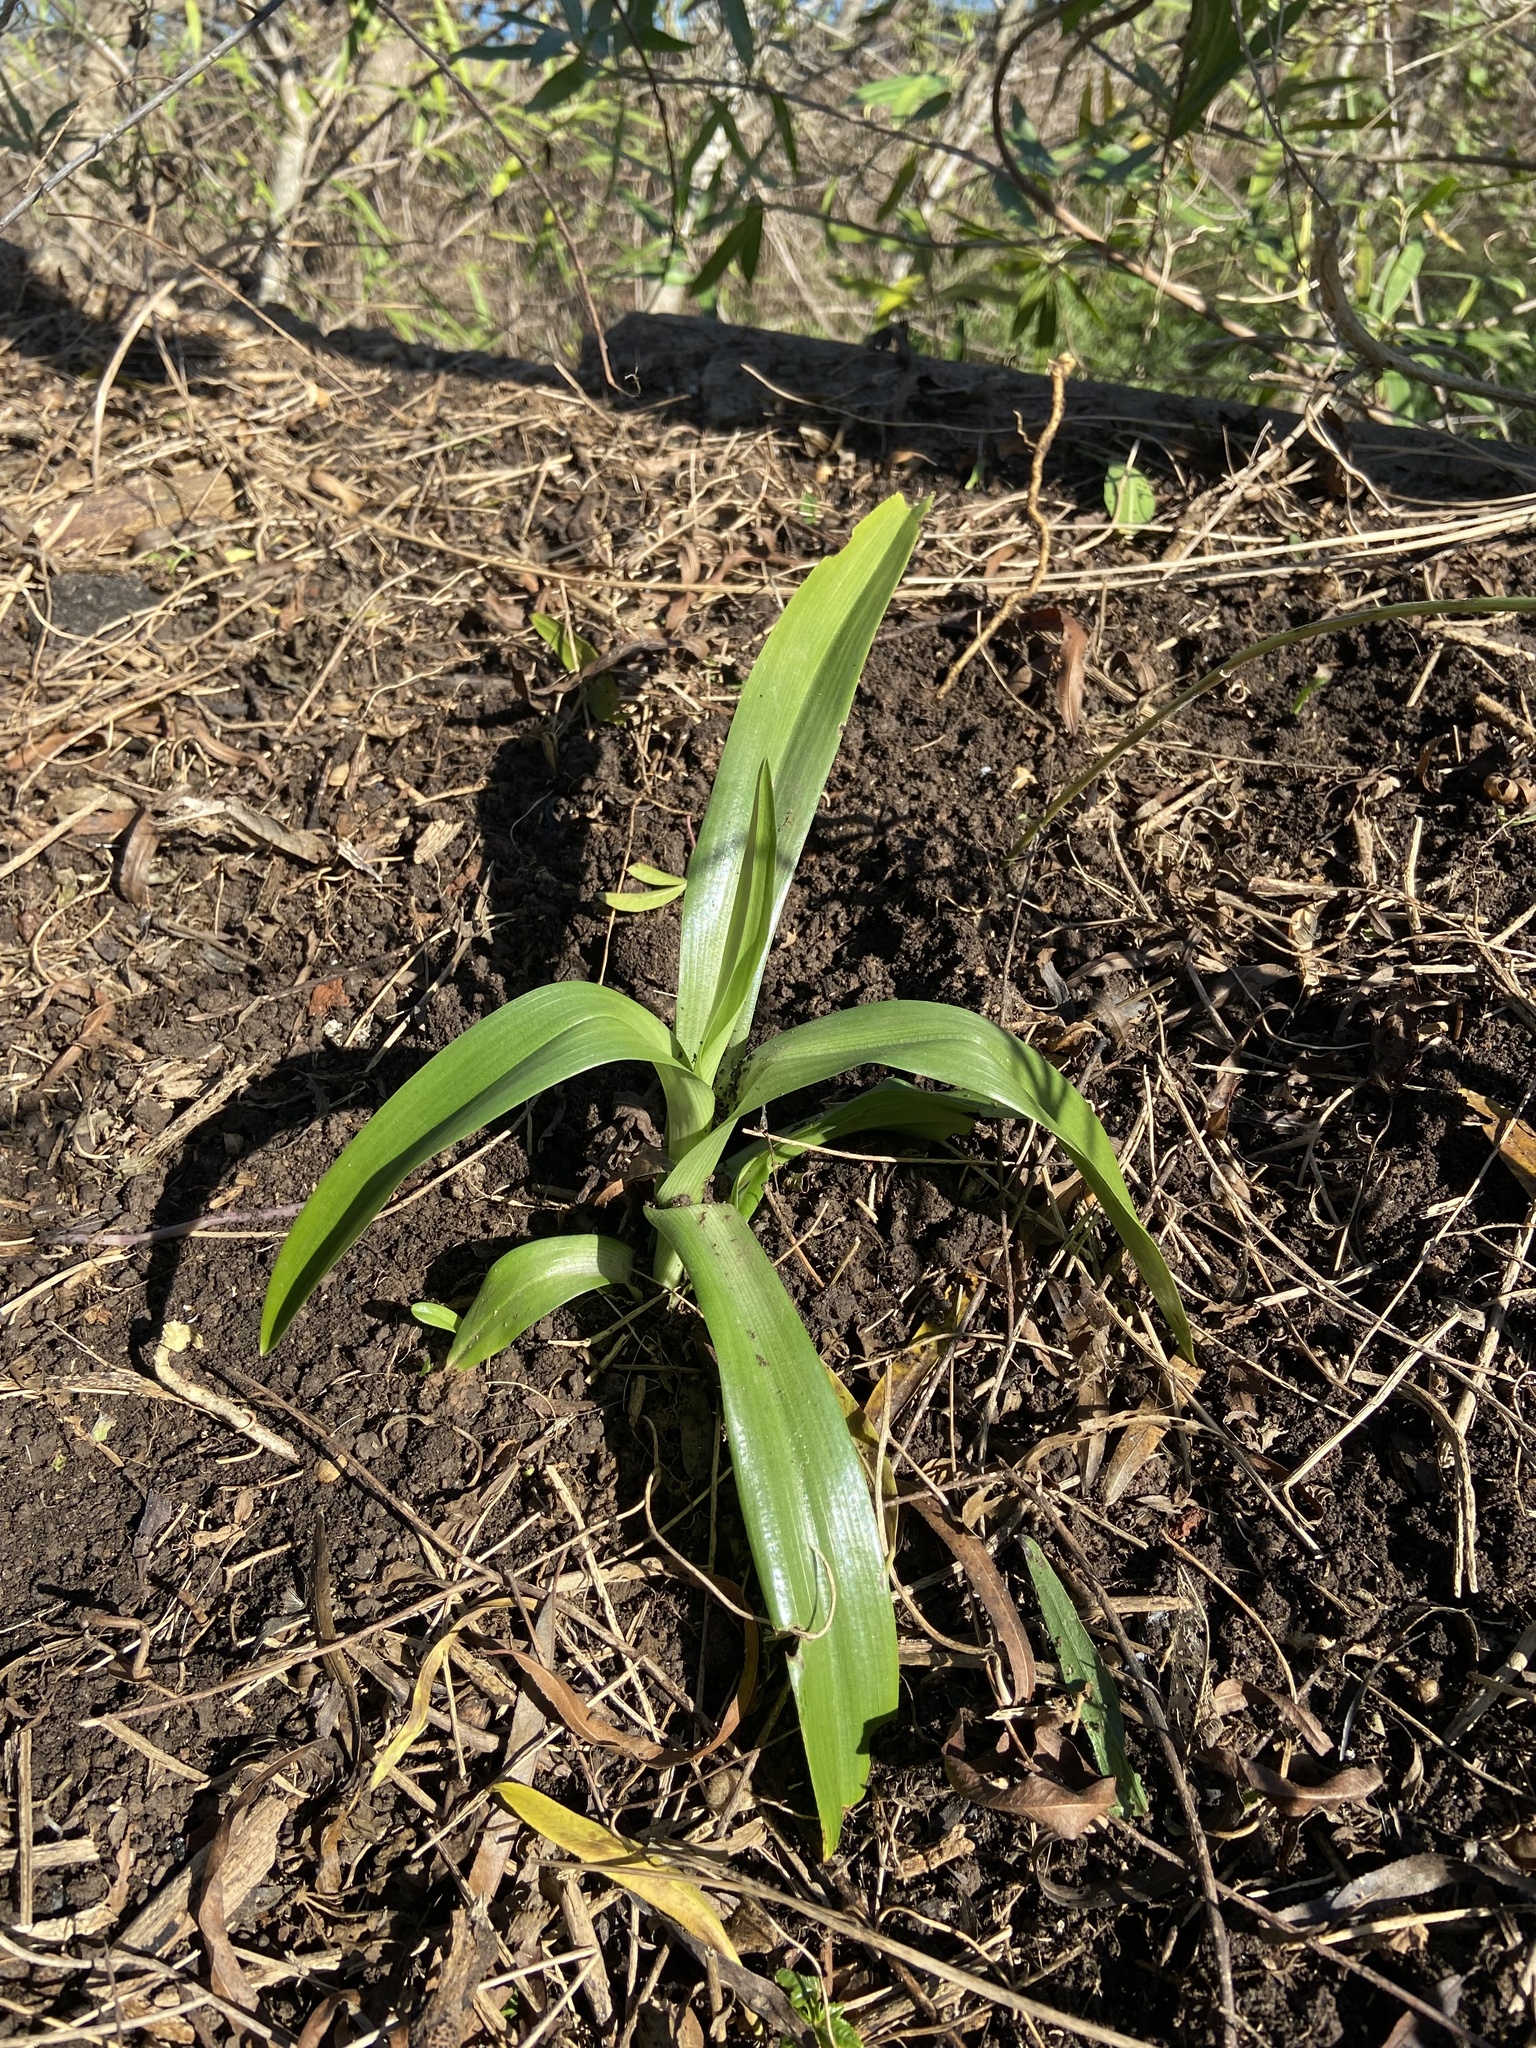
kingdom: Plantae
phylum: Tracheophyta
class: Liliopsida
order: Asparagales
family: Orchidaceae
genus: Chloraea
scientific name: Chloraea membranacea
